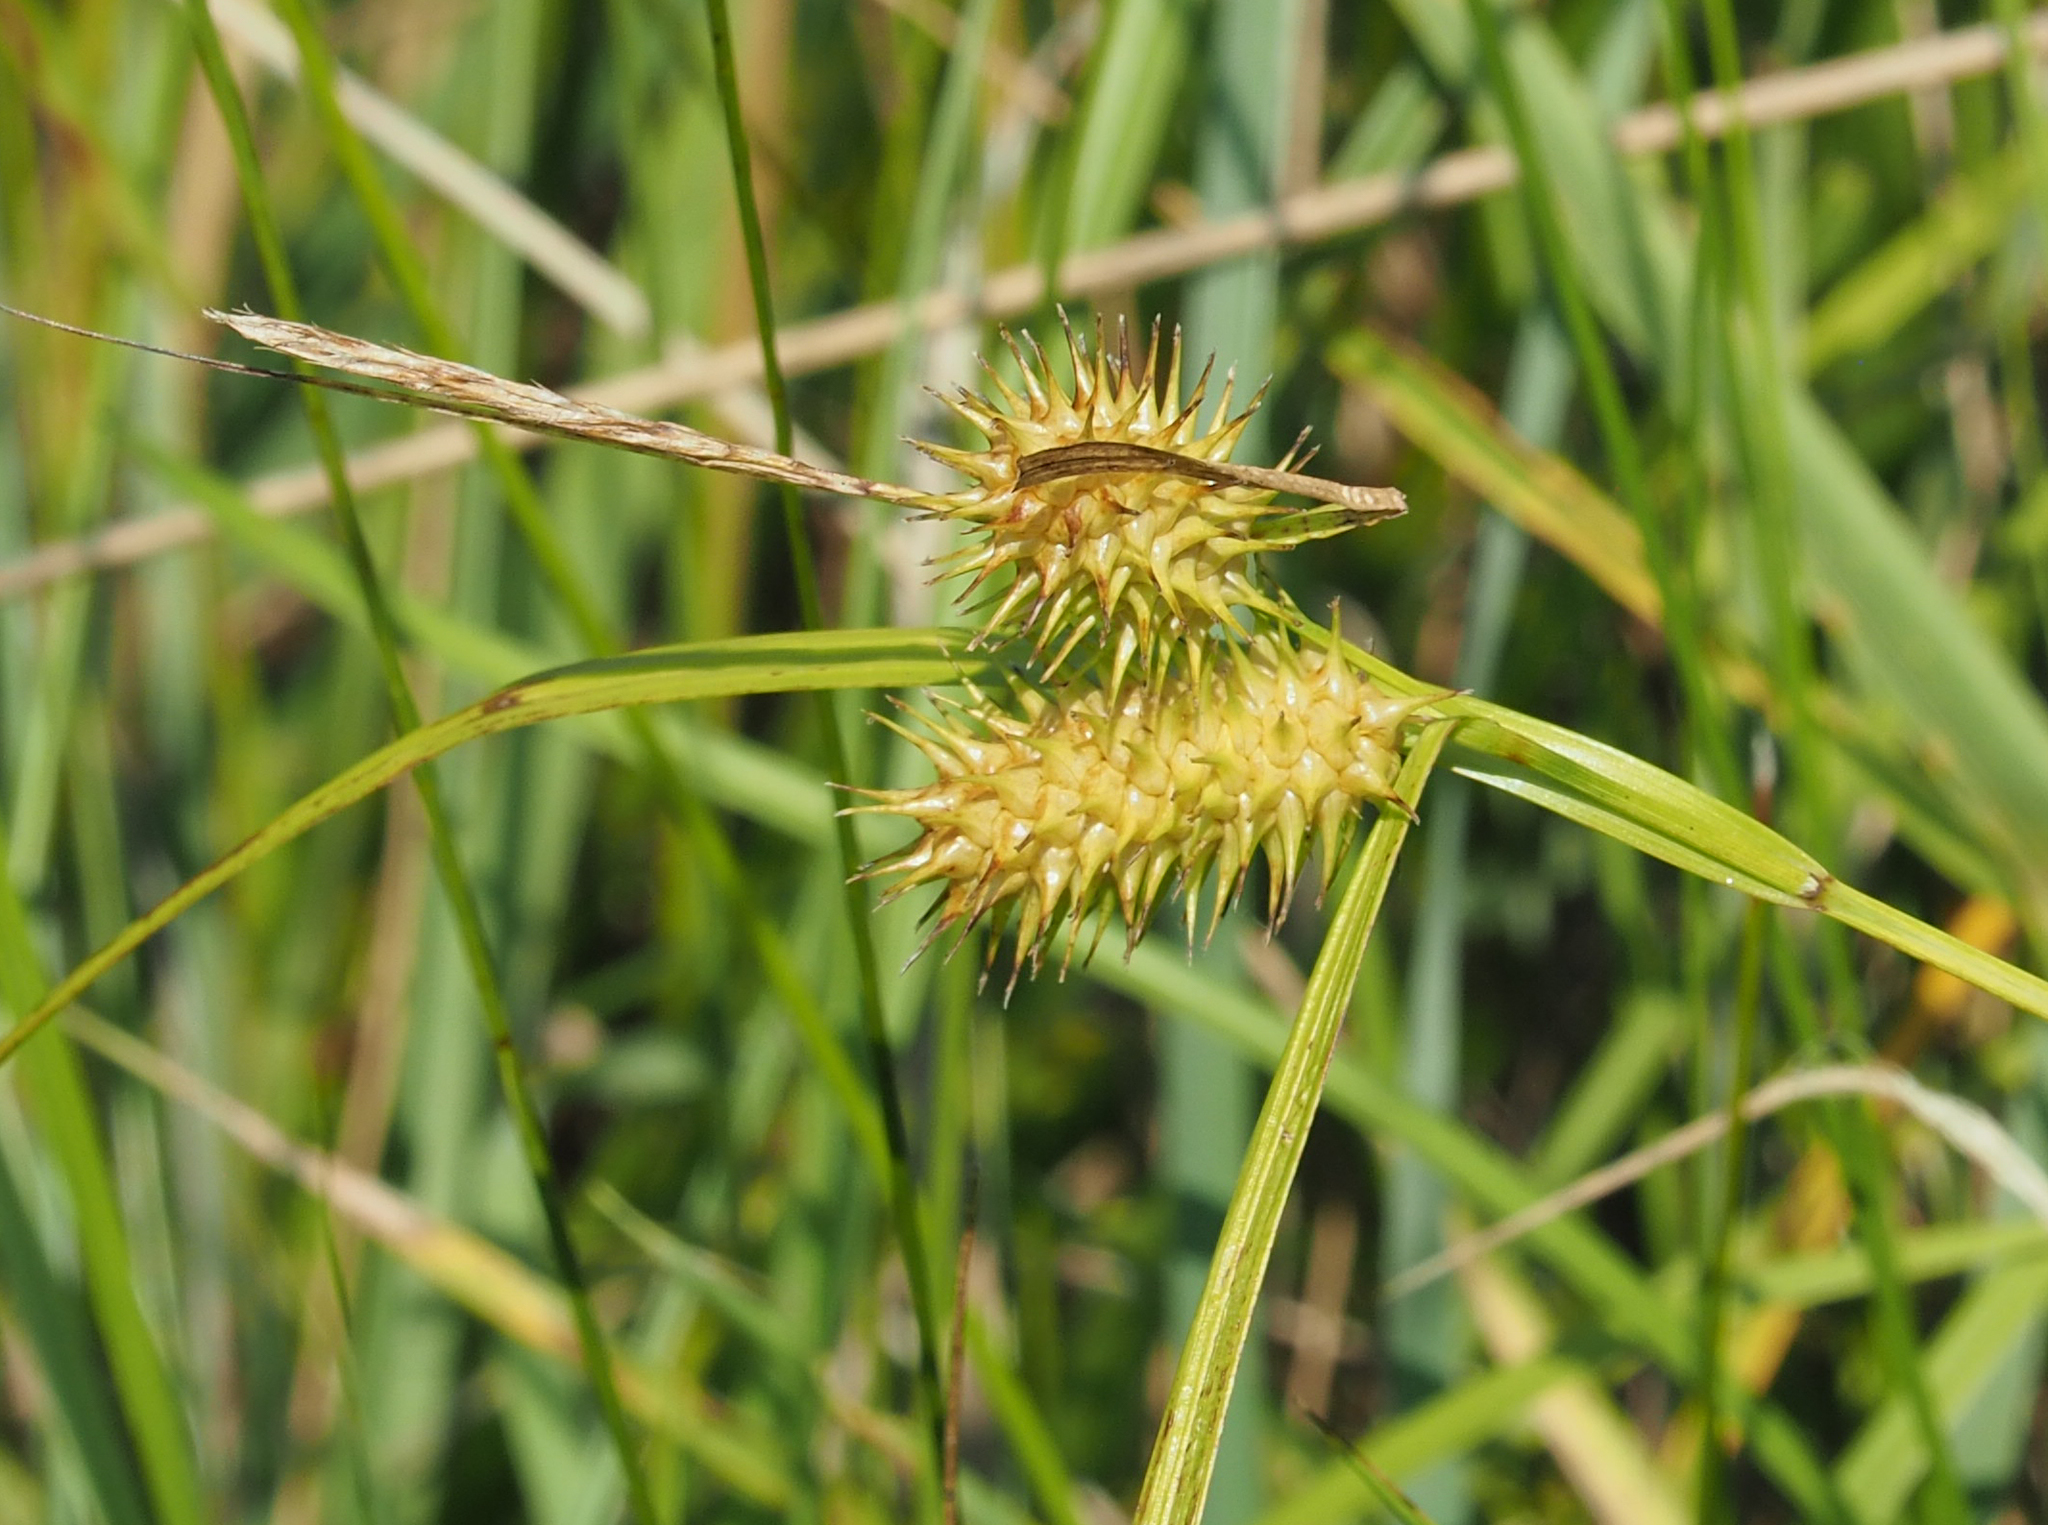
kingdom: Plantae
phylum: Tracheophyta
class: Liliopsida
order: Poales
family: Cyperaceae
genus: Carex
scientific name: Carex lurida
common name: Sallow sedge
